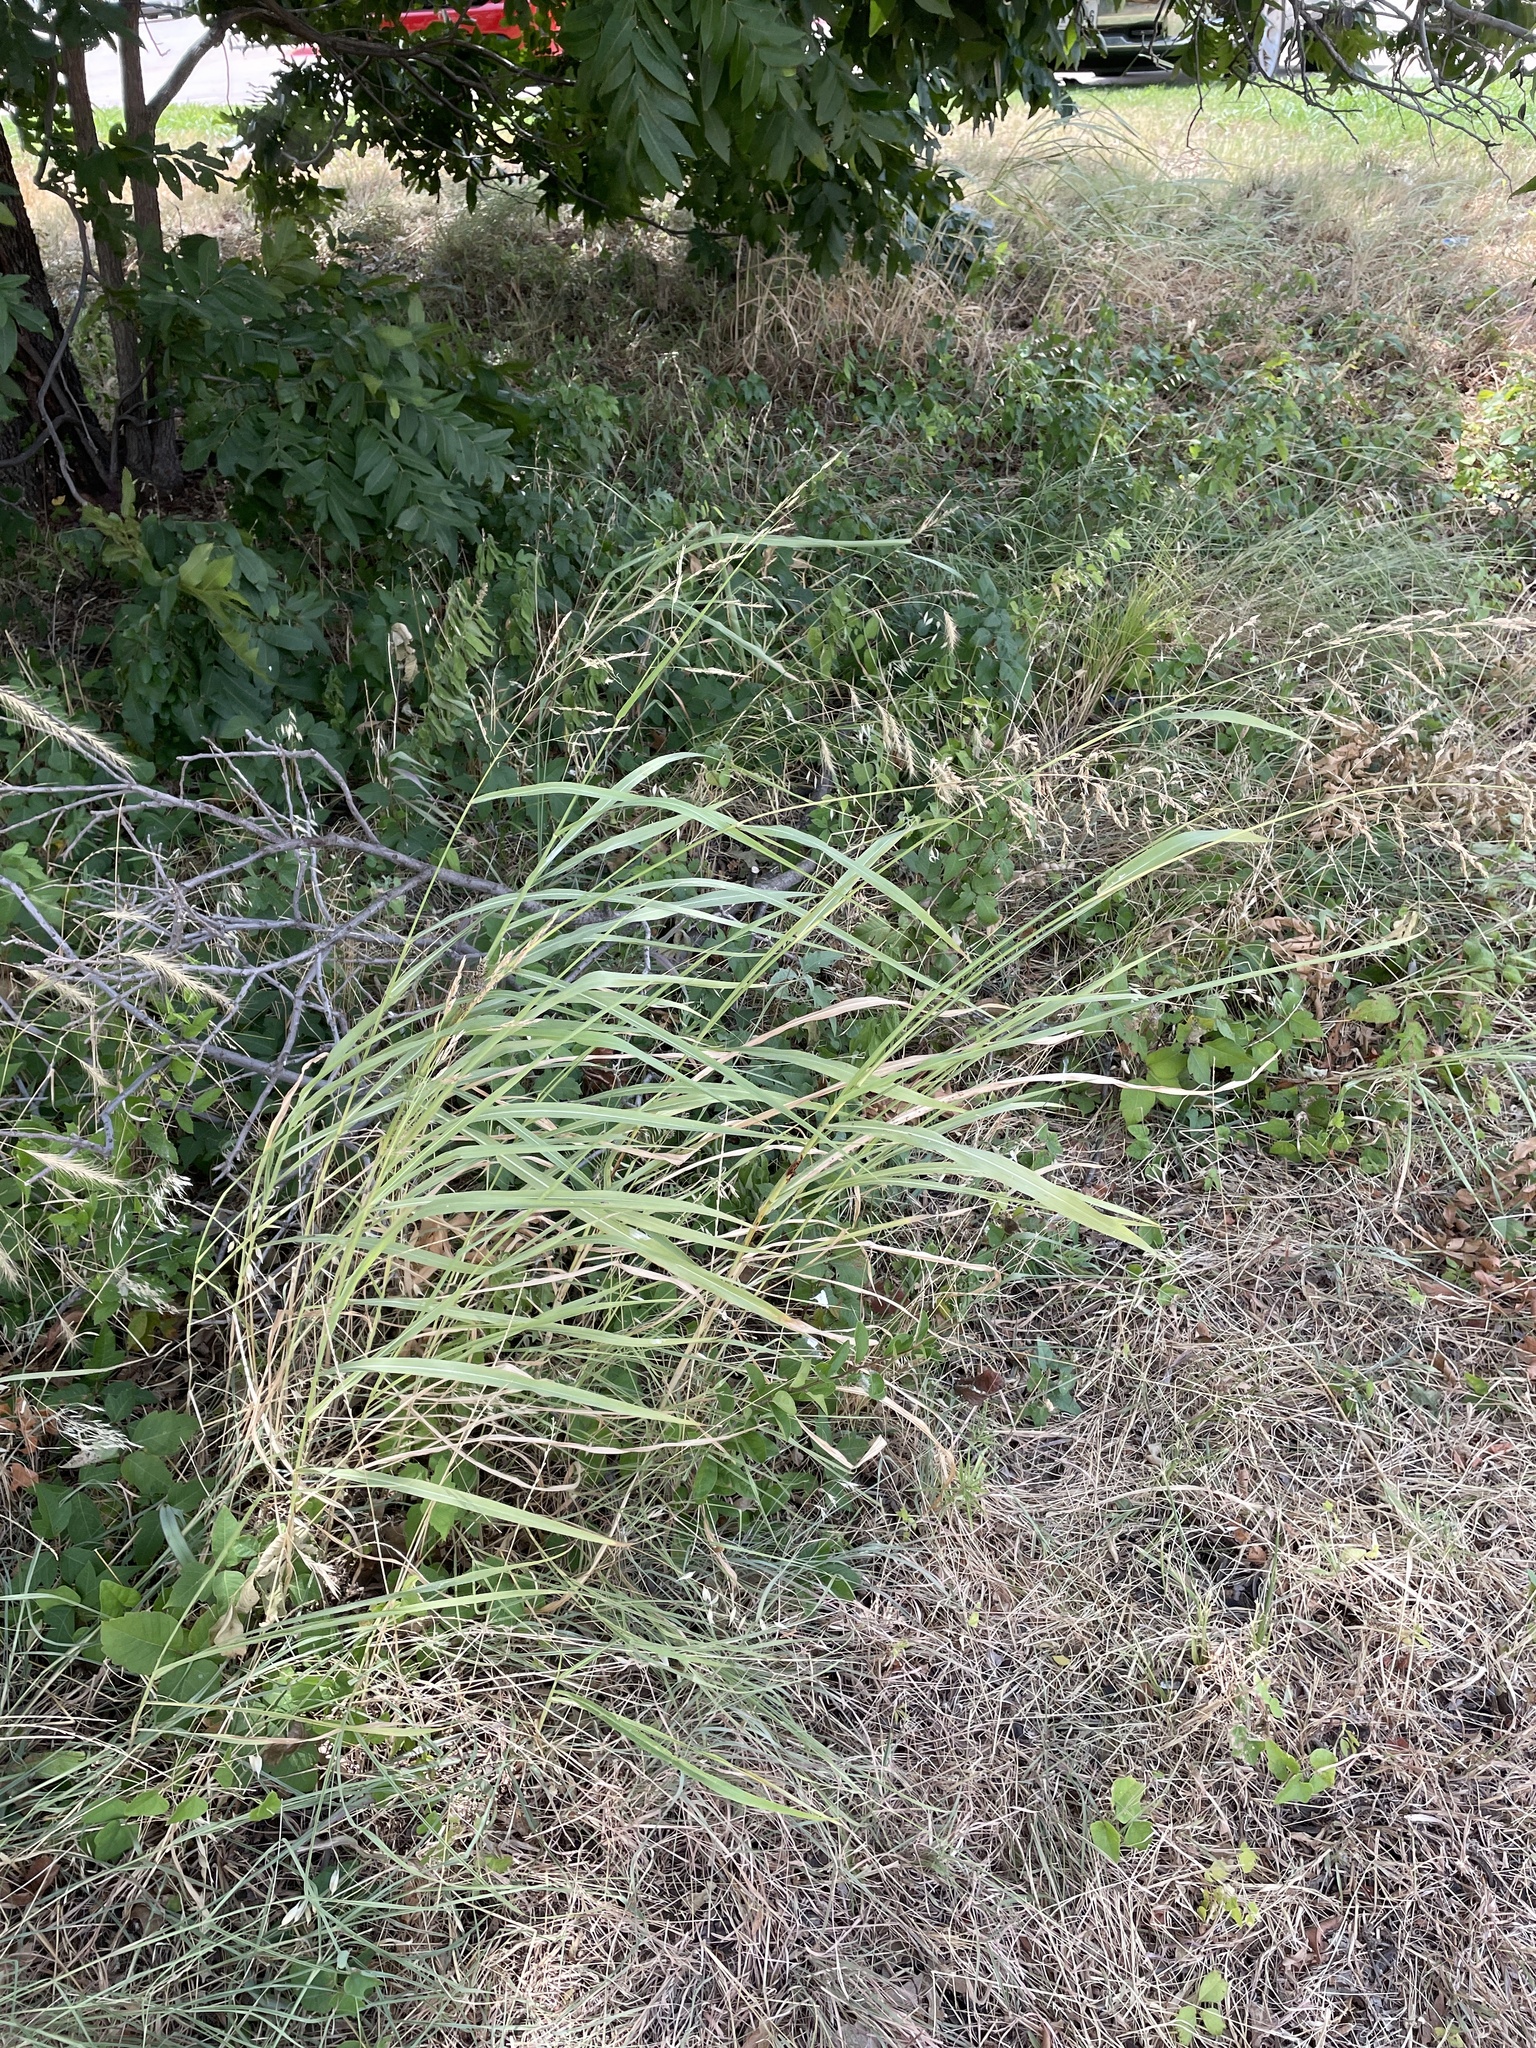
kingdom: Plantae
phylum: Tracheophyta
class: Liliopsida
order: Poales
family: Poaceae
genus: Sorghum
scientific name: Sorghum halepense
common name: Johnson-grass
